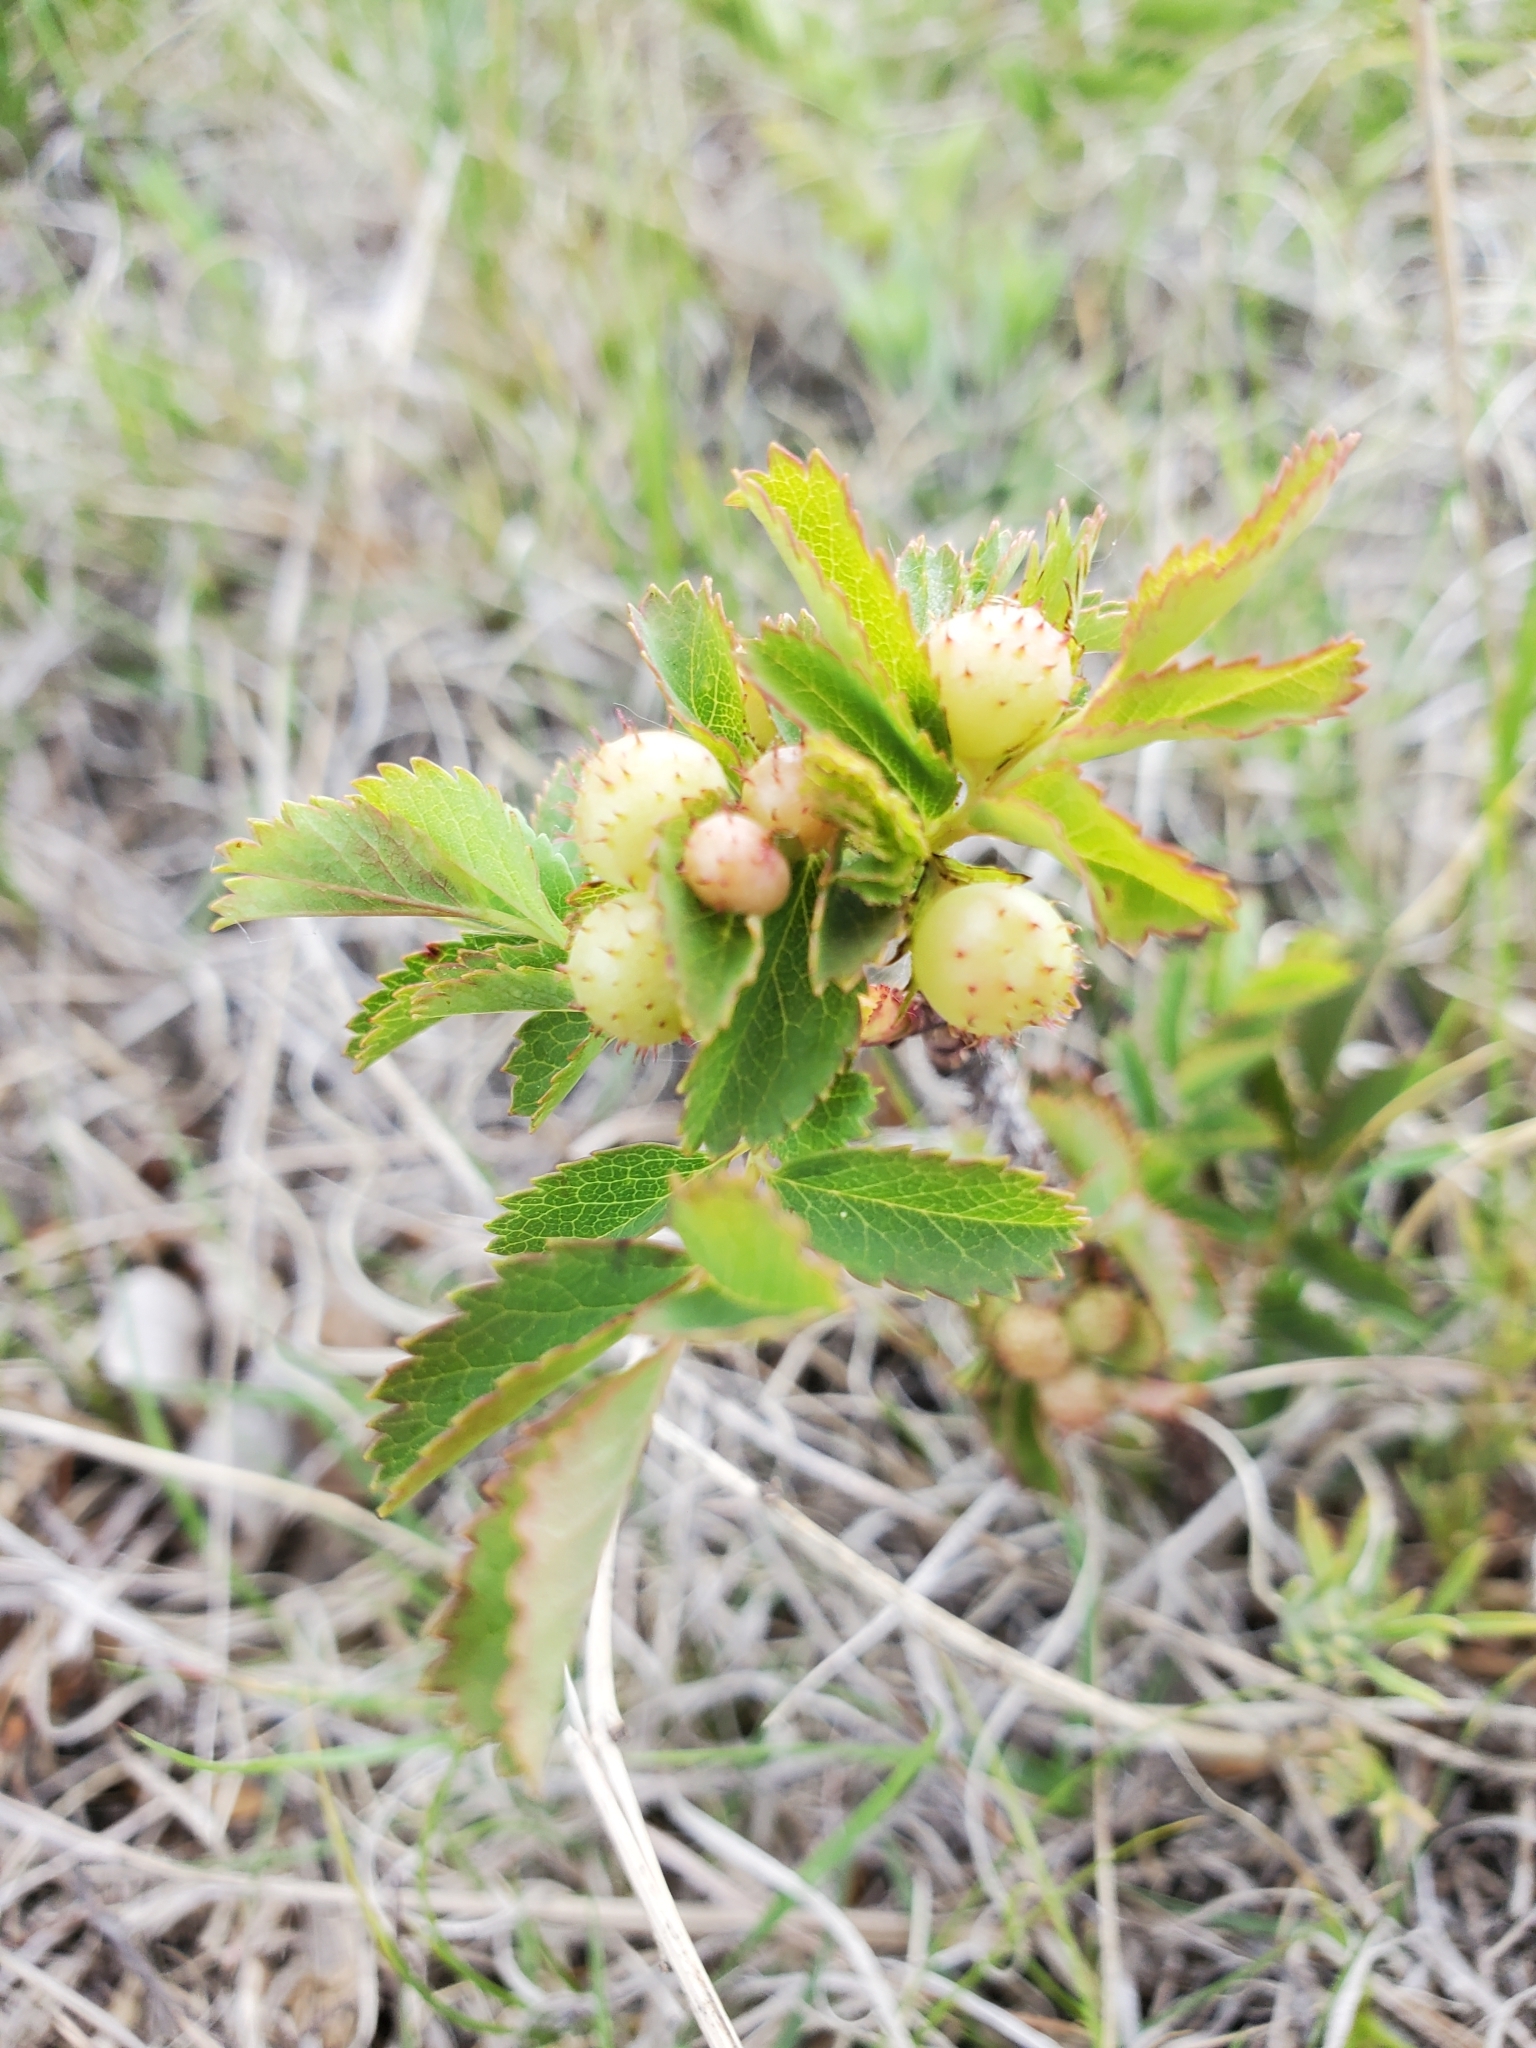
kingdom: Animalia
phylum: Arthropoda
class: Insecta
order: Hymenoptera
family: Cynipidae
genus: Diplolepis
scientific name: Diplolepis polita
